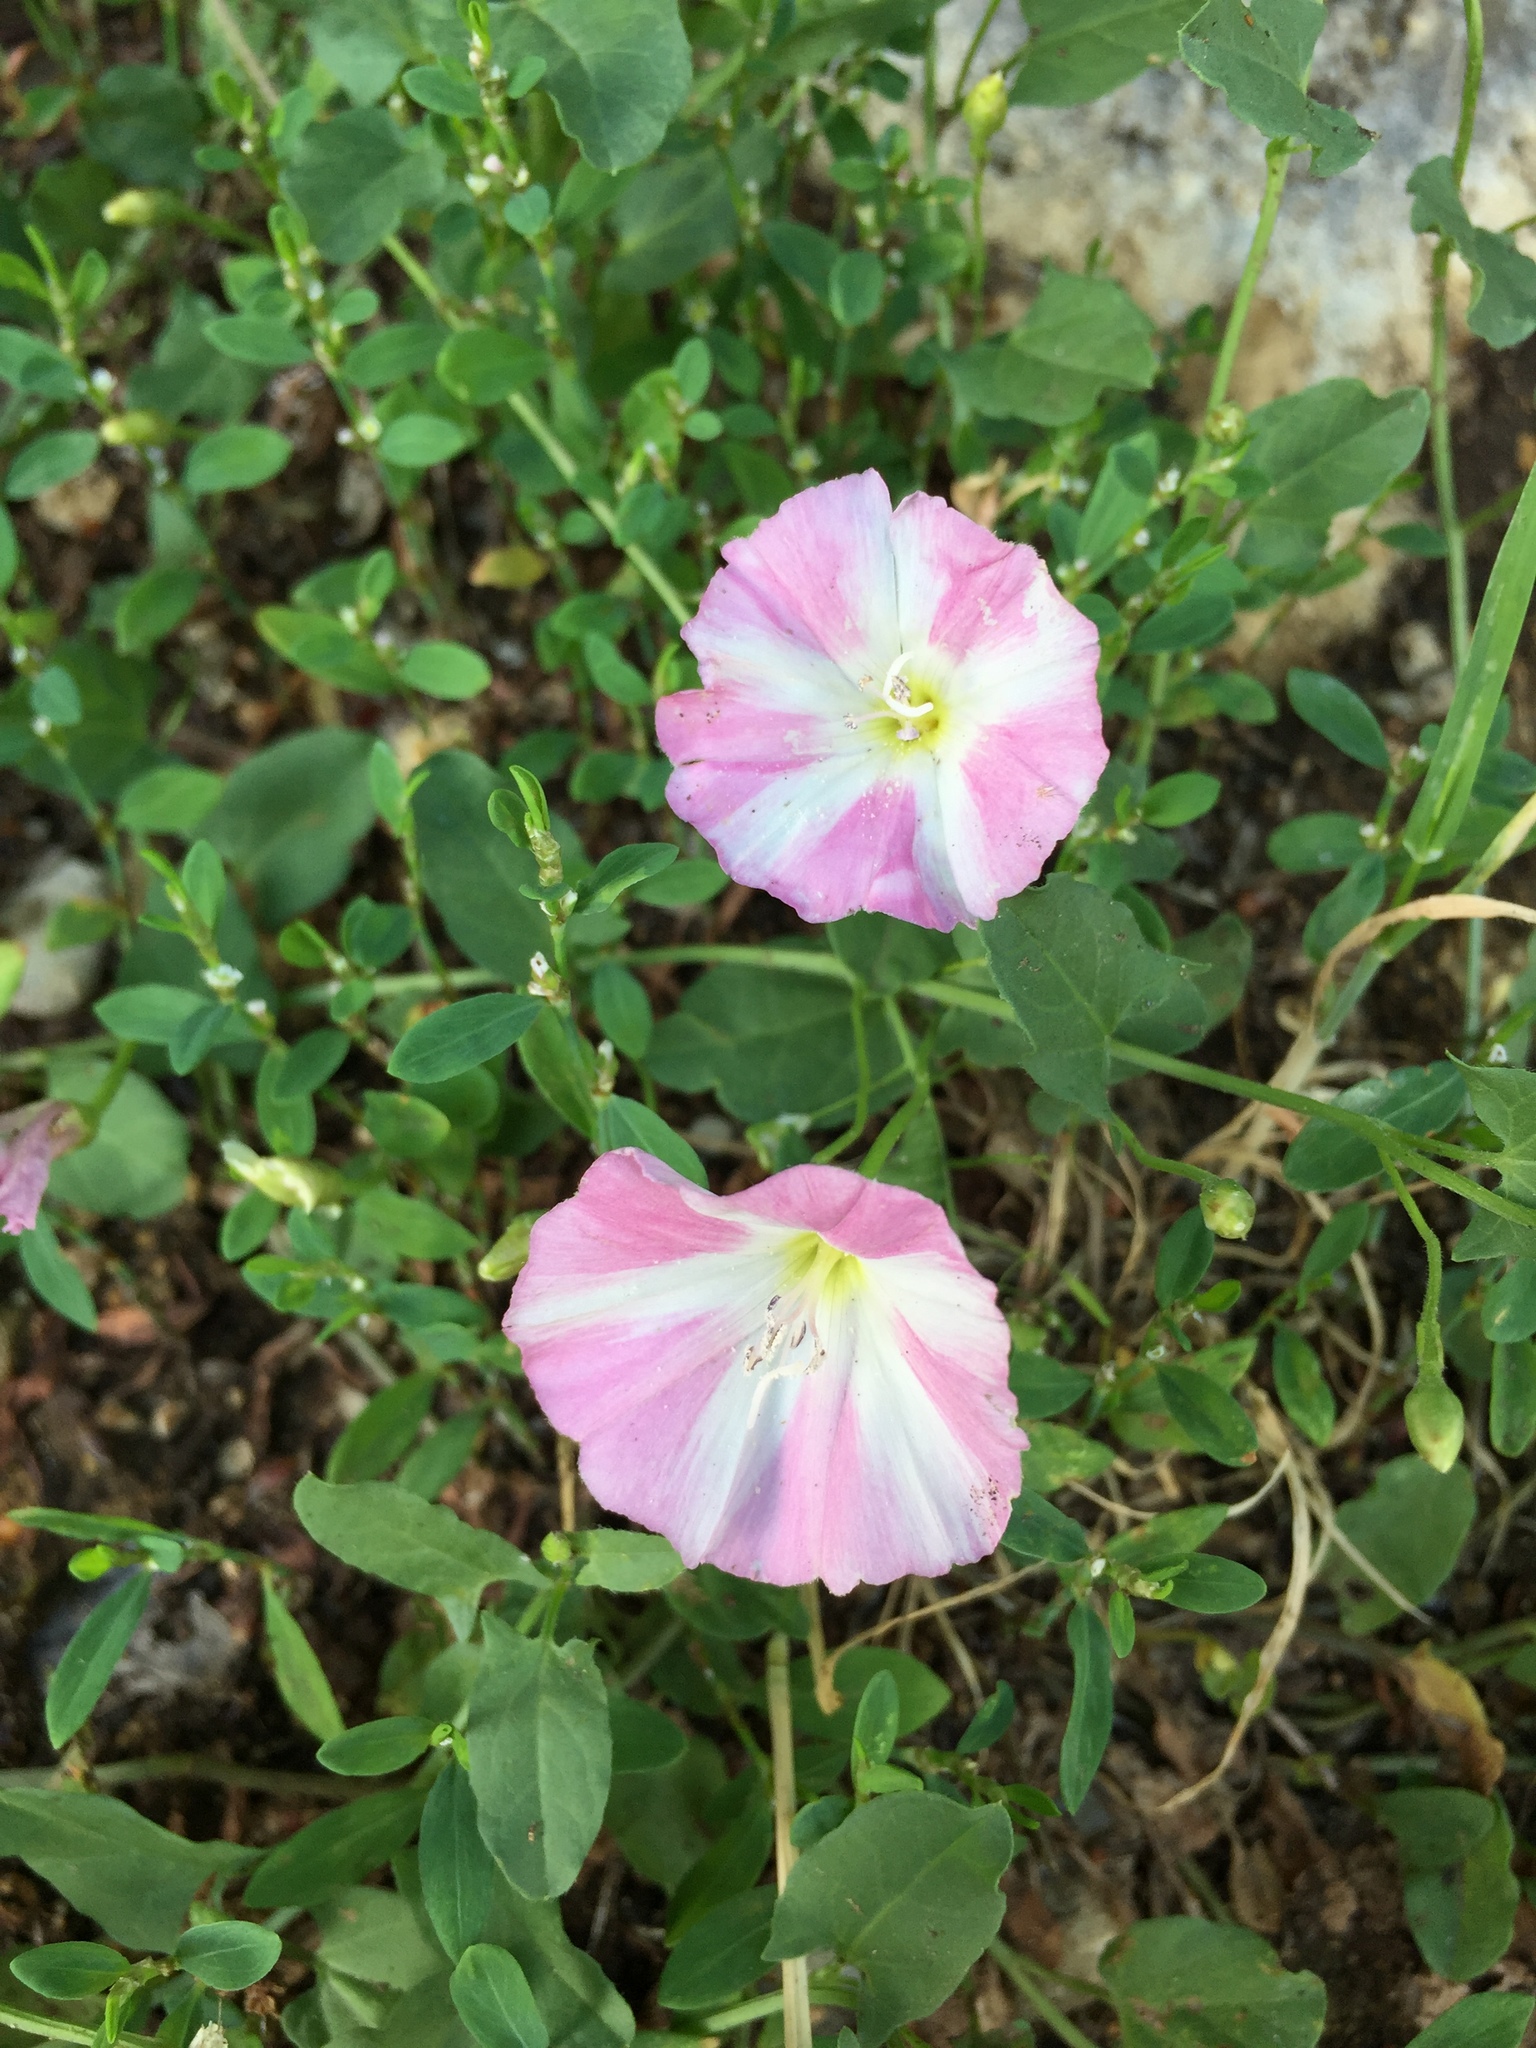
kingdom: Plantae
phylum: Tracheophyta
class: Magnoliopsida
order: Solanales
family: Convolvulaceae
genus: Convolvulus
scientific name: Convolvulus arvensis
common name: Field bindweed
